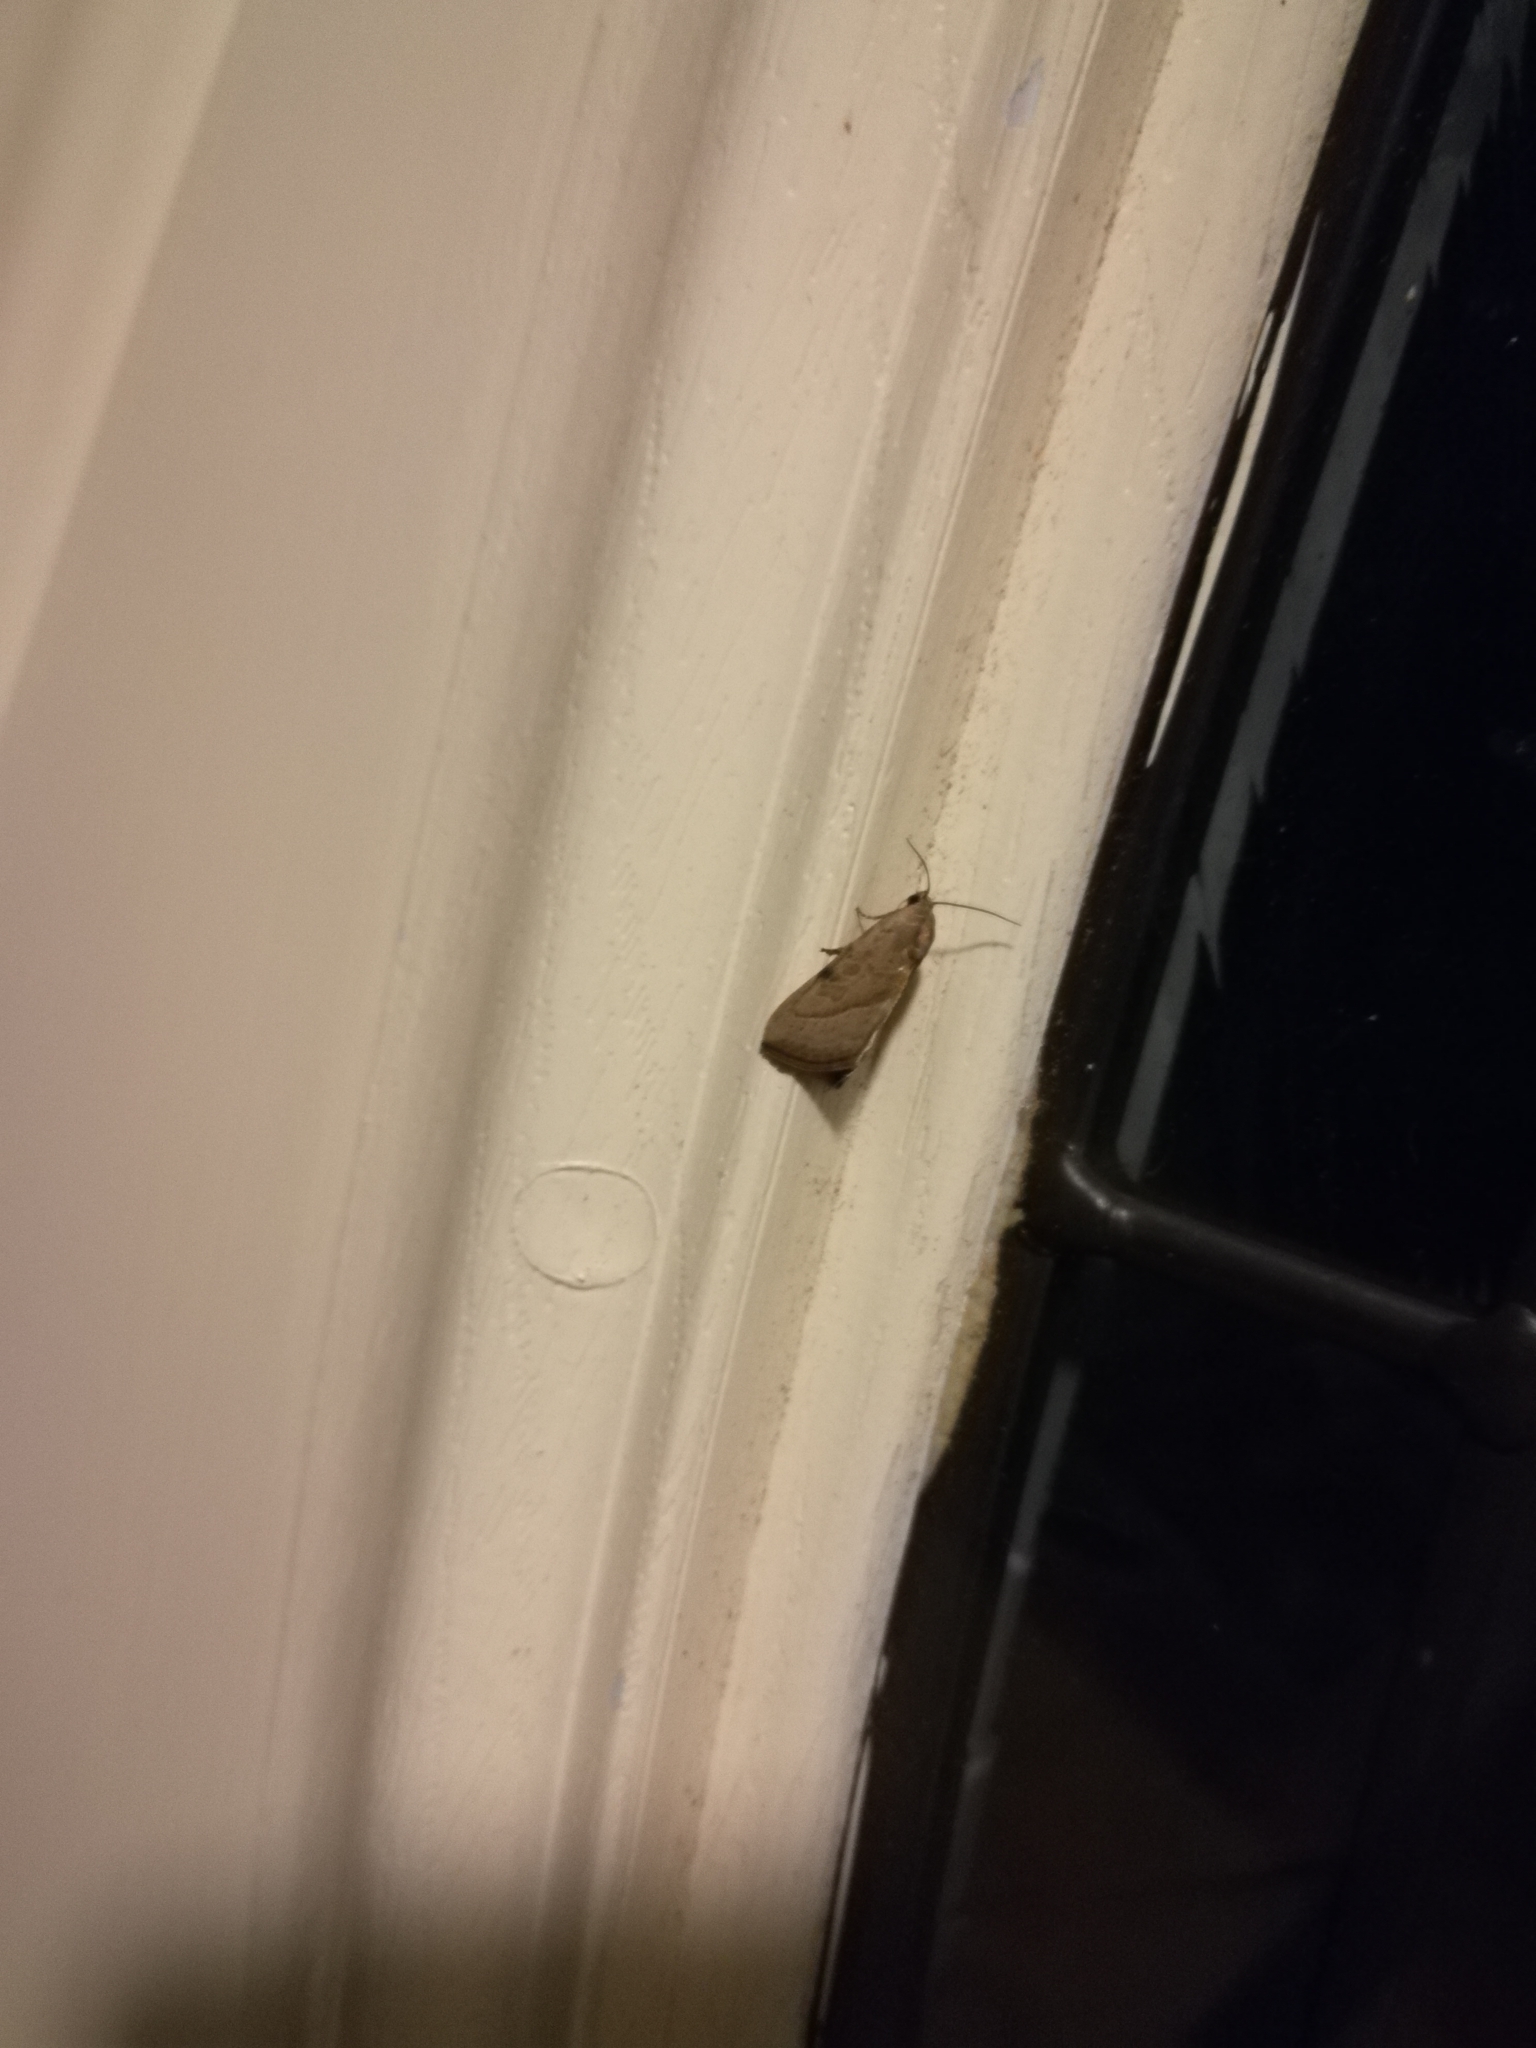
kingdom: Animalia
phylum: Arthropoda
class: Insecta
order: Lepidoptera
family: Noctuidae
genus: Galgula
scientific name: Galgula partita
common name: Wedgeling
